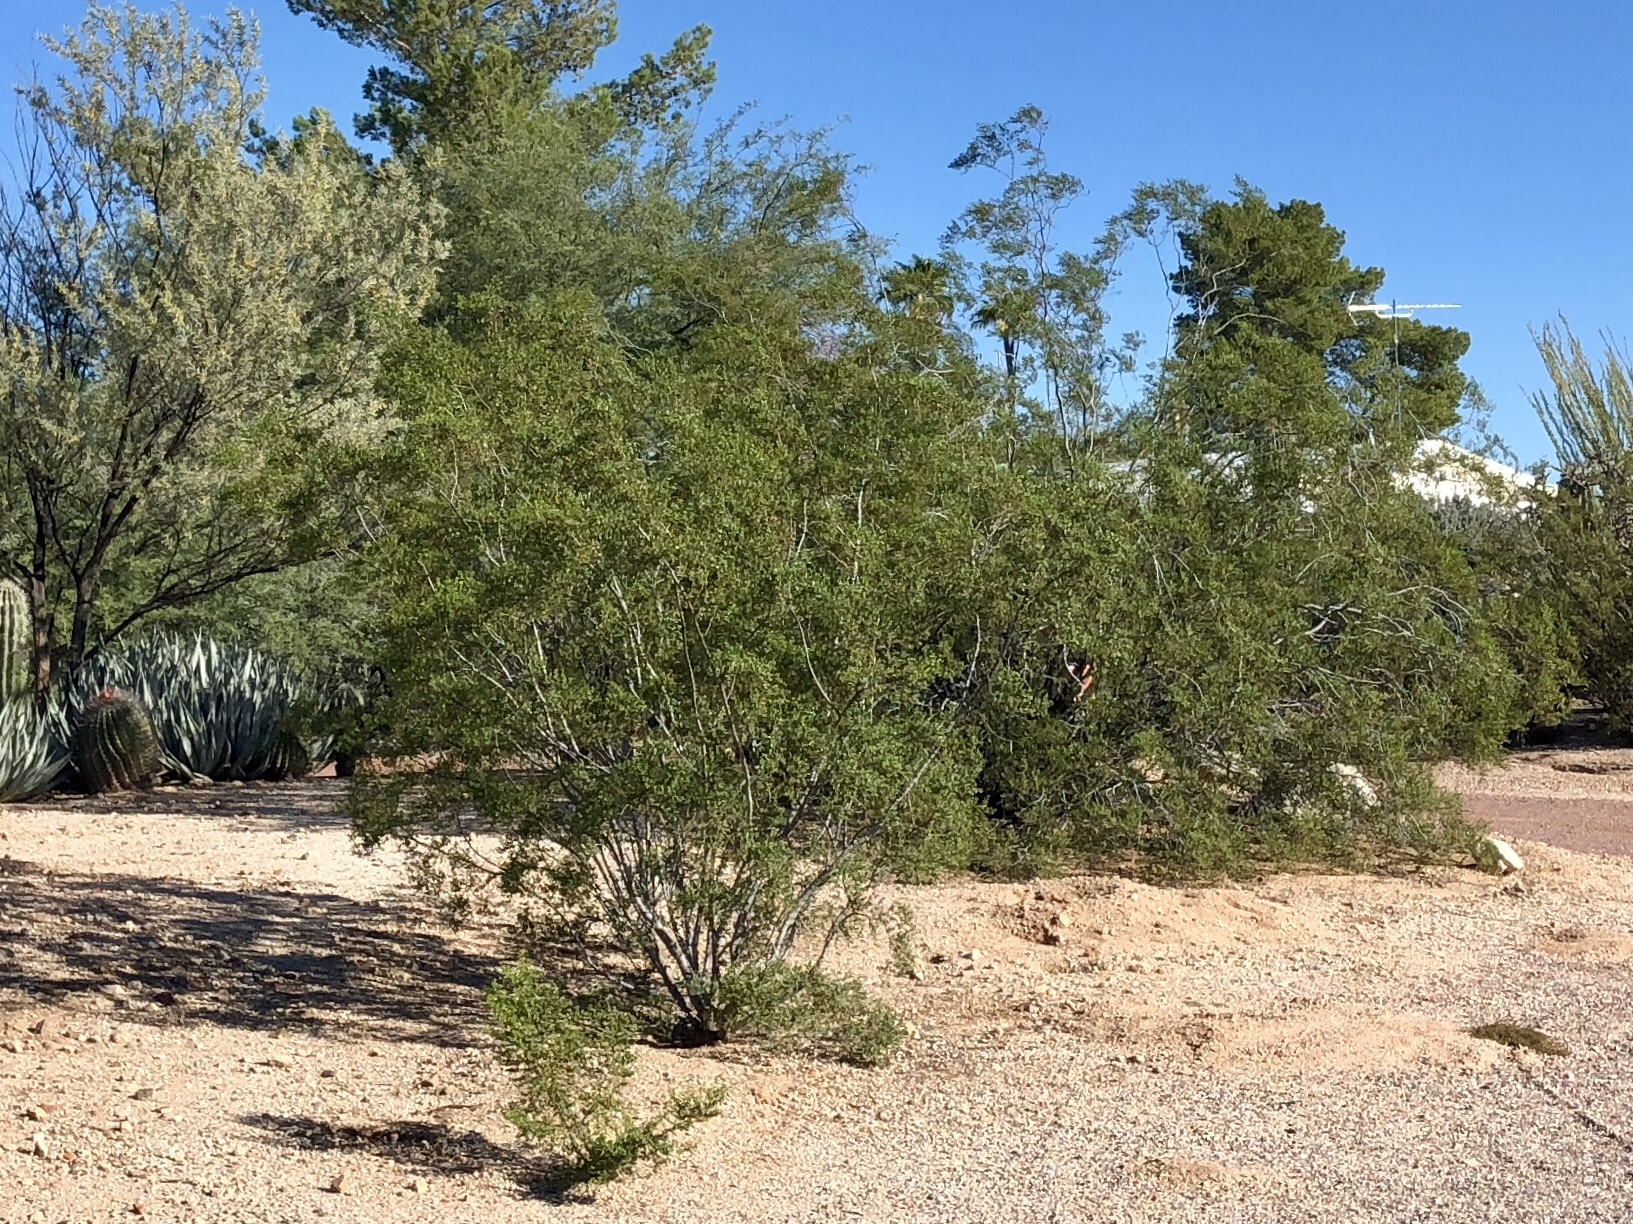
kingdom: Plantae
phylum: Tracheophyta
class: Magnoliopsida
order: Zygophyllales
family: Zygophyllaceae
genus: Larrea
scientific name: Larrea tridentata
